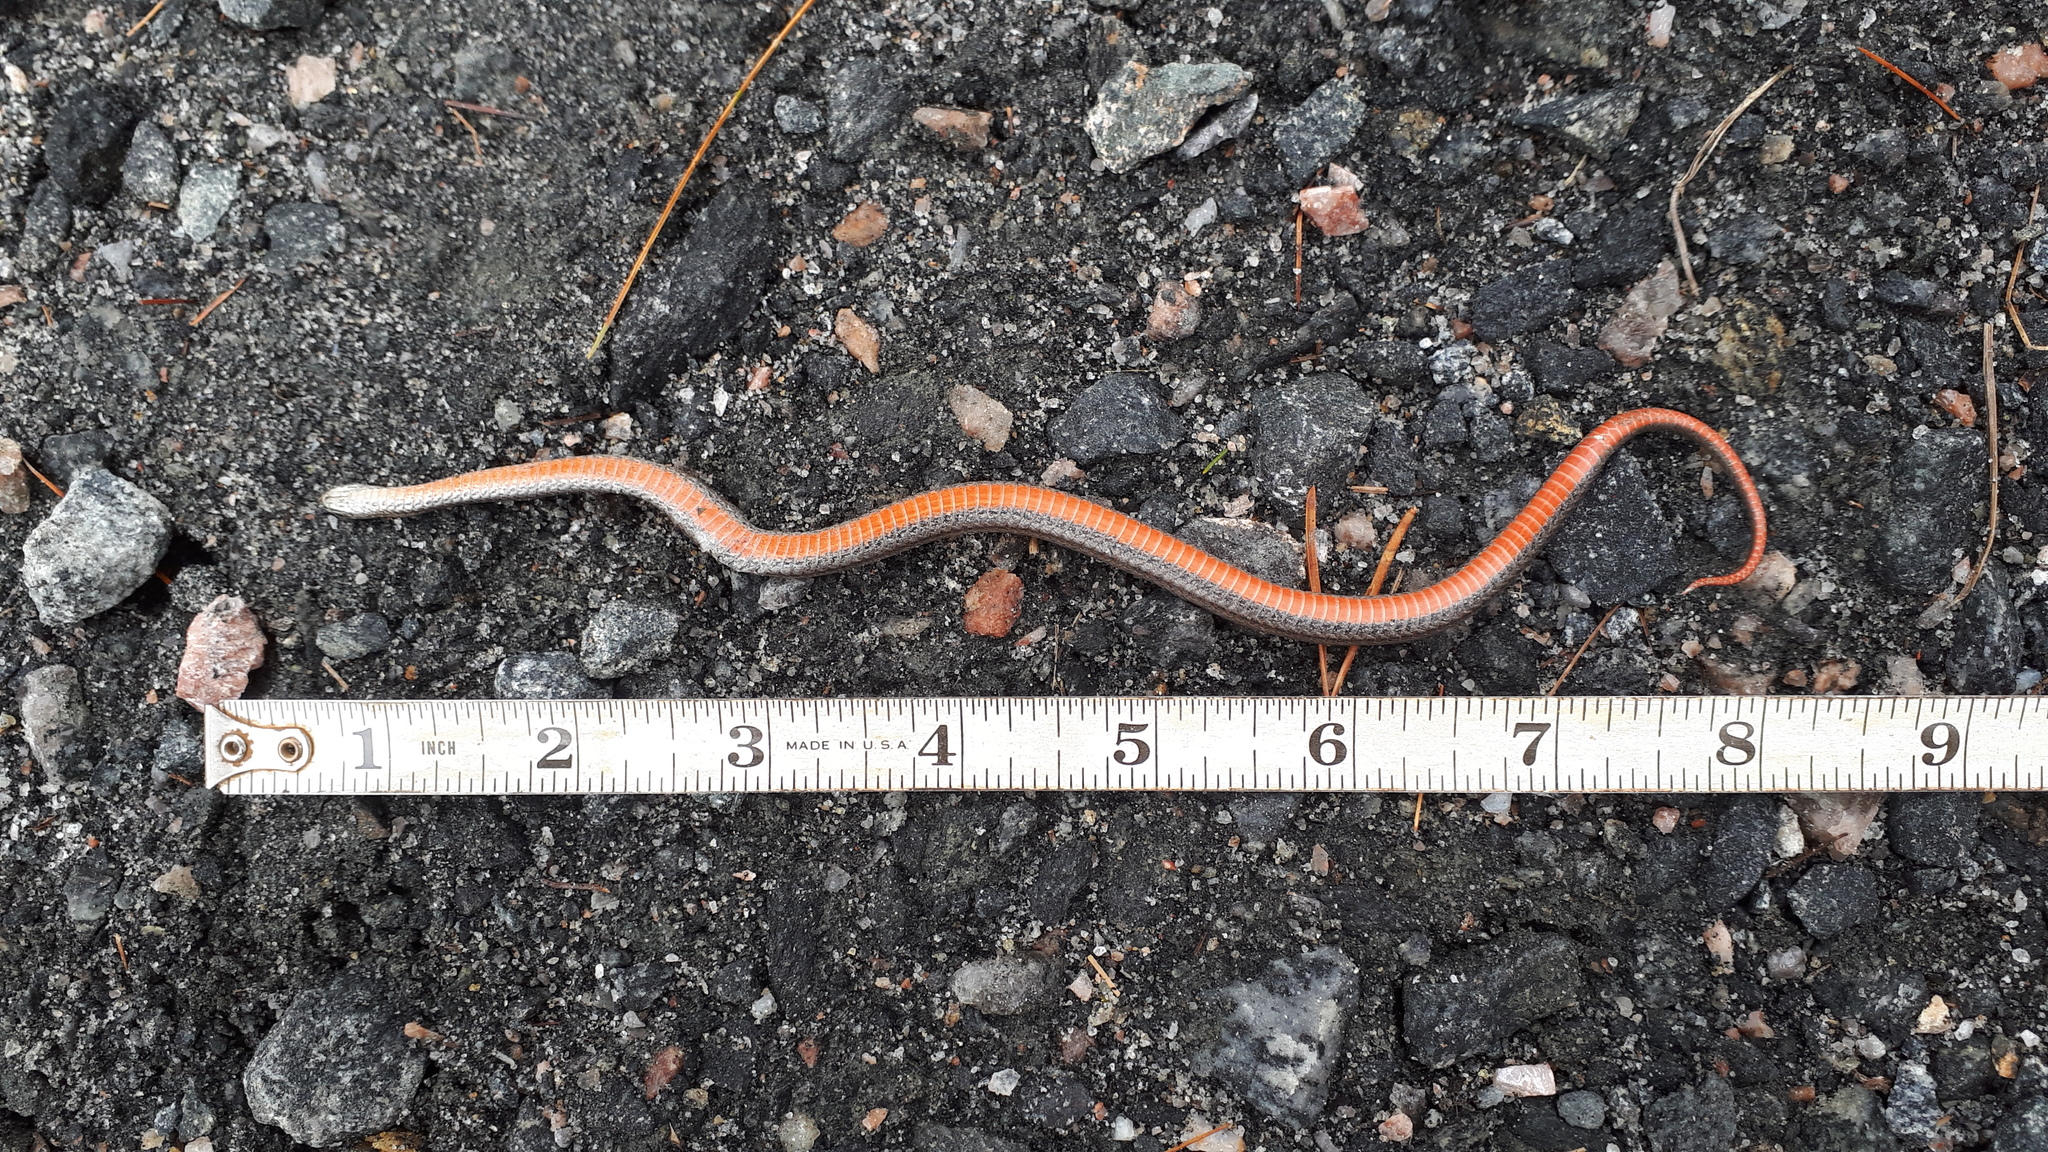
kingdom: Animalia
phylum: Chordata
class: Squamata
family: Colubridae
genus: Storeria
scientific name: Storeria occipitomaculata
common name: Redbelly snake
